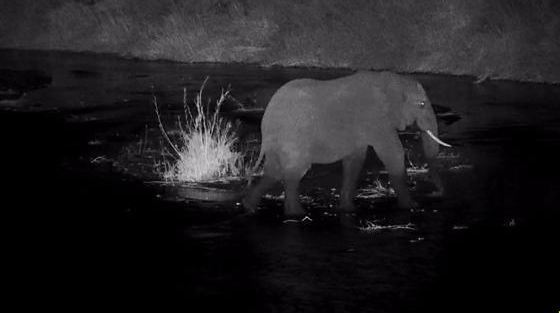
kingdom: Animalia
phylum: Chordata
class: Mammalia
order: Proboscidea
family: Elephantidae
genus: Loxodonta
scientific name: Loxodonta africana
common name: African elephant
